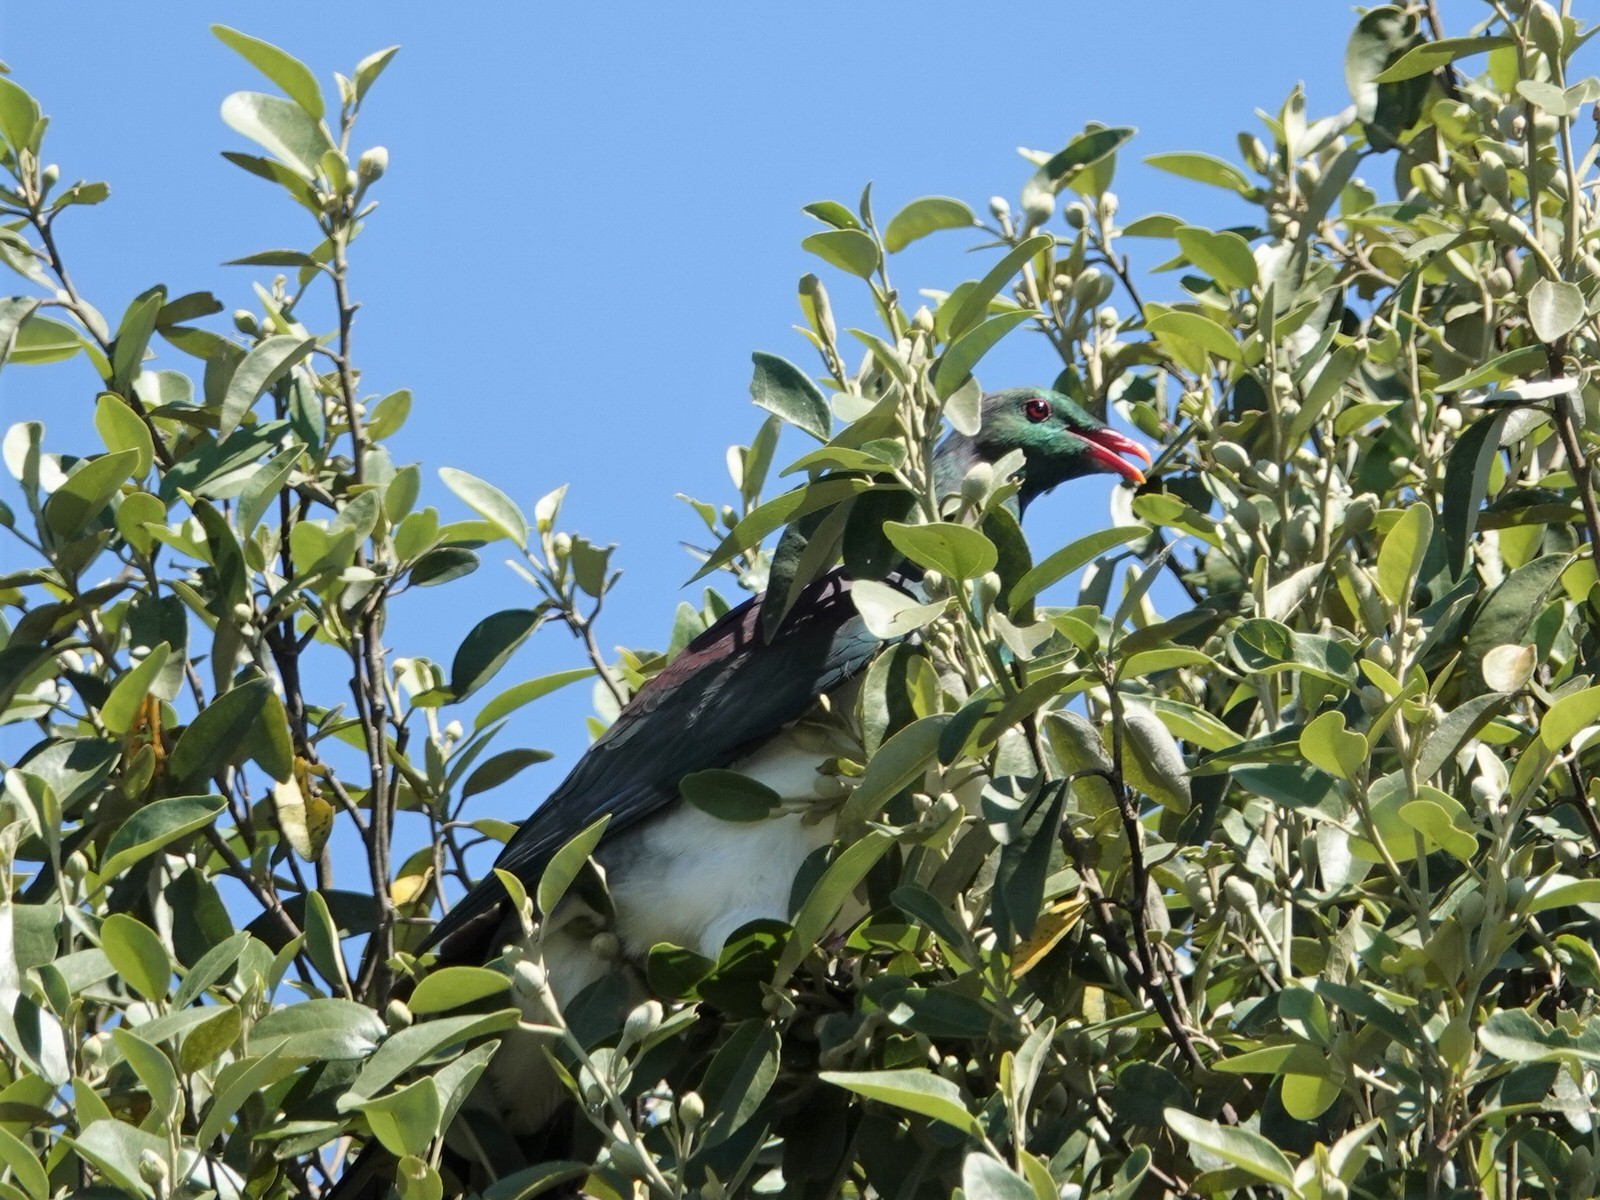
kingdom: Animalia
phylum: Chordata
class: Aves
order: Columbiformes
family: Columbidae
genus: Hemiphaga
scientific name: Hemiphaga novaeseelandiae
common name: New zealand pigeon
